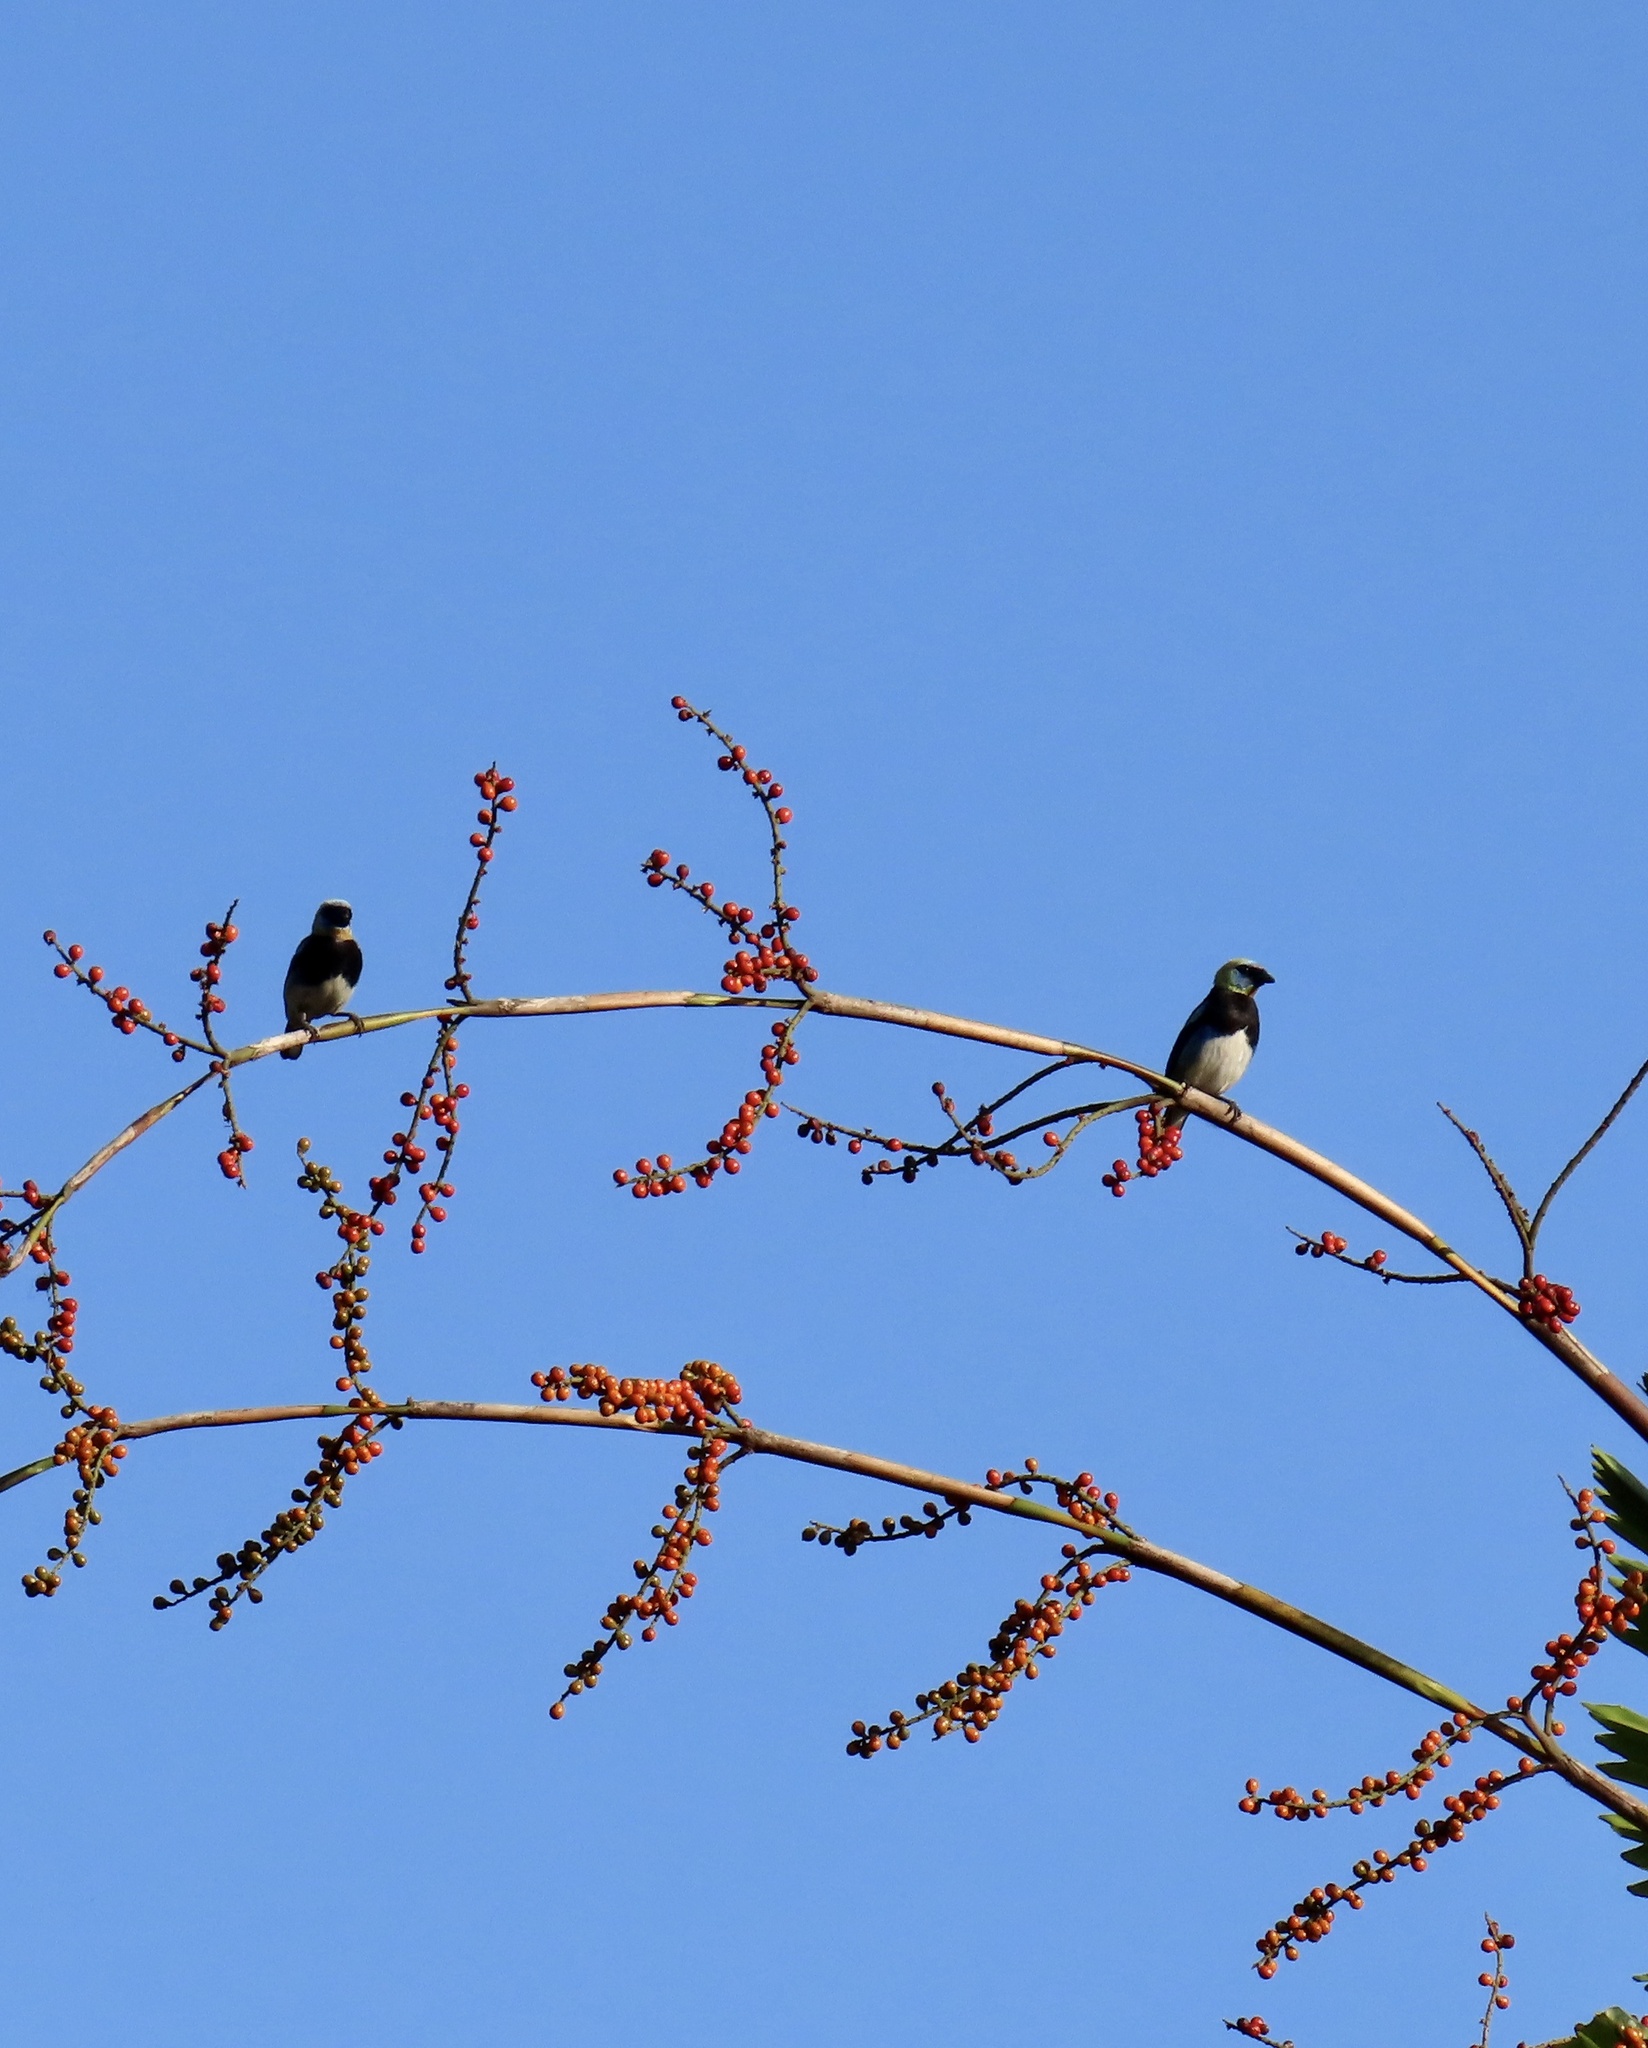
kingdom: Animalia
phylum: Chordata
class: Aves
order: Passeriformes
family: Thraupidae
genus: Stilpnia
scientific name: Stilpnia larvata
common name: Golden-hooded tanager
